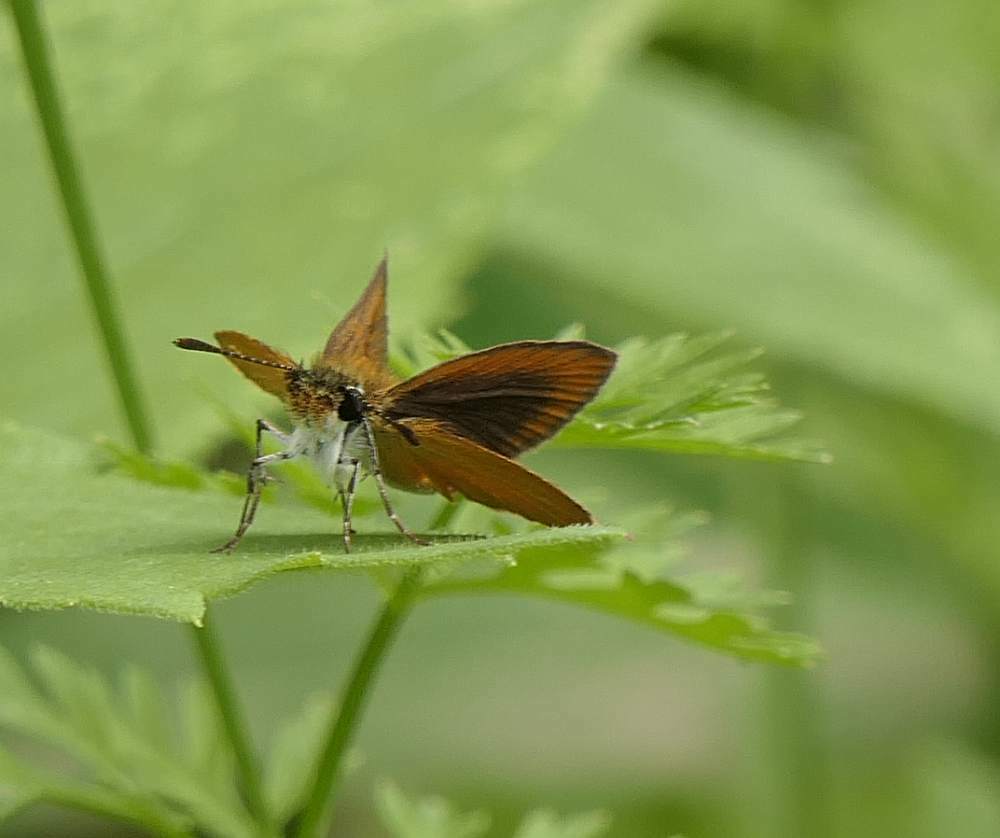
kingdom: Animalia
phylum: Arthropoda
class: Insecta
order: Lepidoptera
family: Hesperiidae
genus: Ancyloxypha
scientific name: Ancyloxypha numitor
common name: Least skipper
